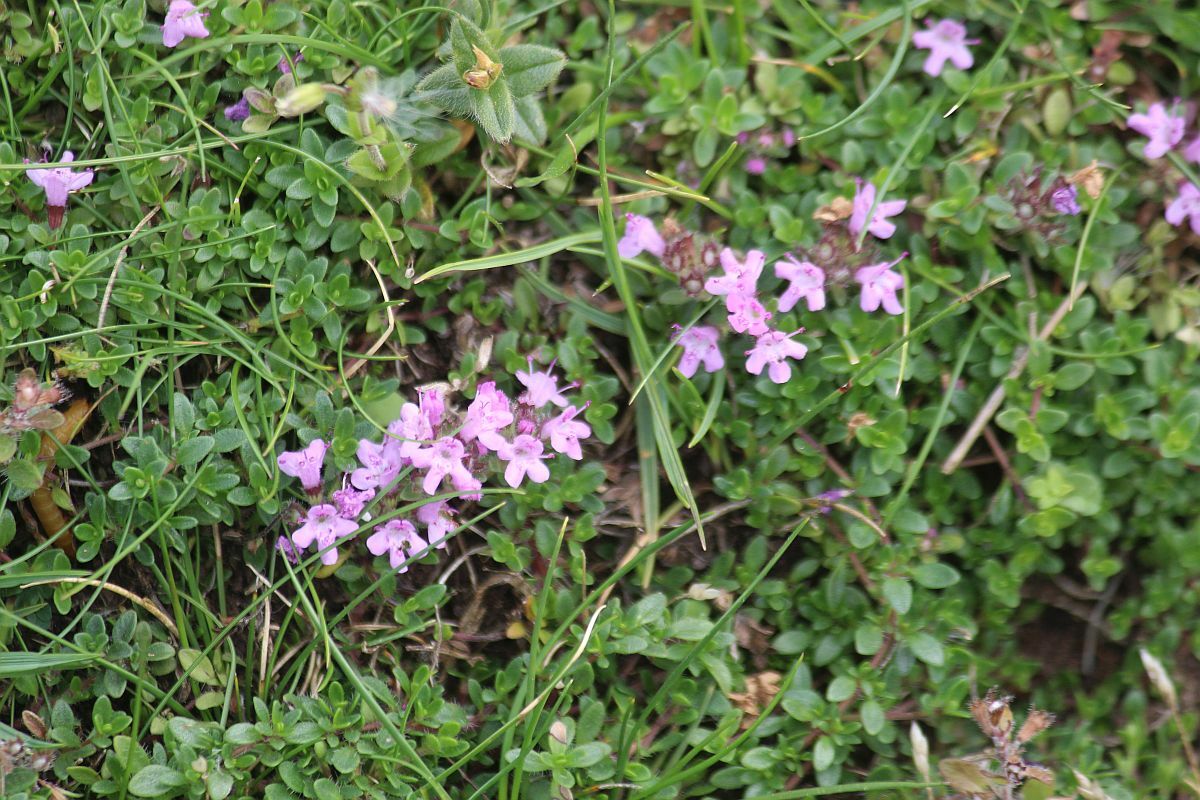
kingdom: Plantae
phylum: Tracheophyta
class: Magnoliopsida
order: Lamiales
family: Lamiaceae
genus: Thymus
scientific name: Thymus praecox
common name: Wild thyme
